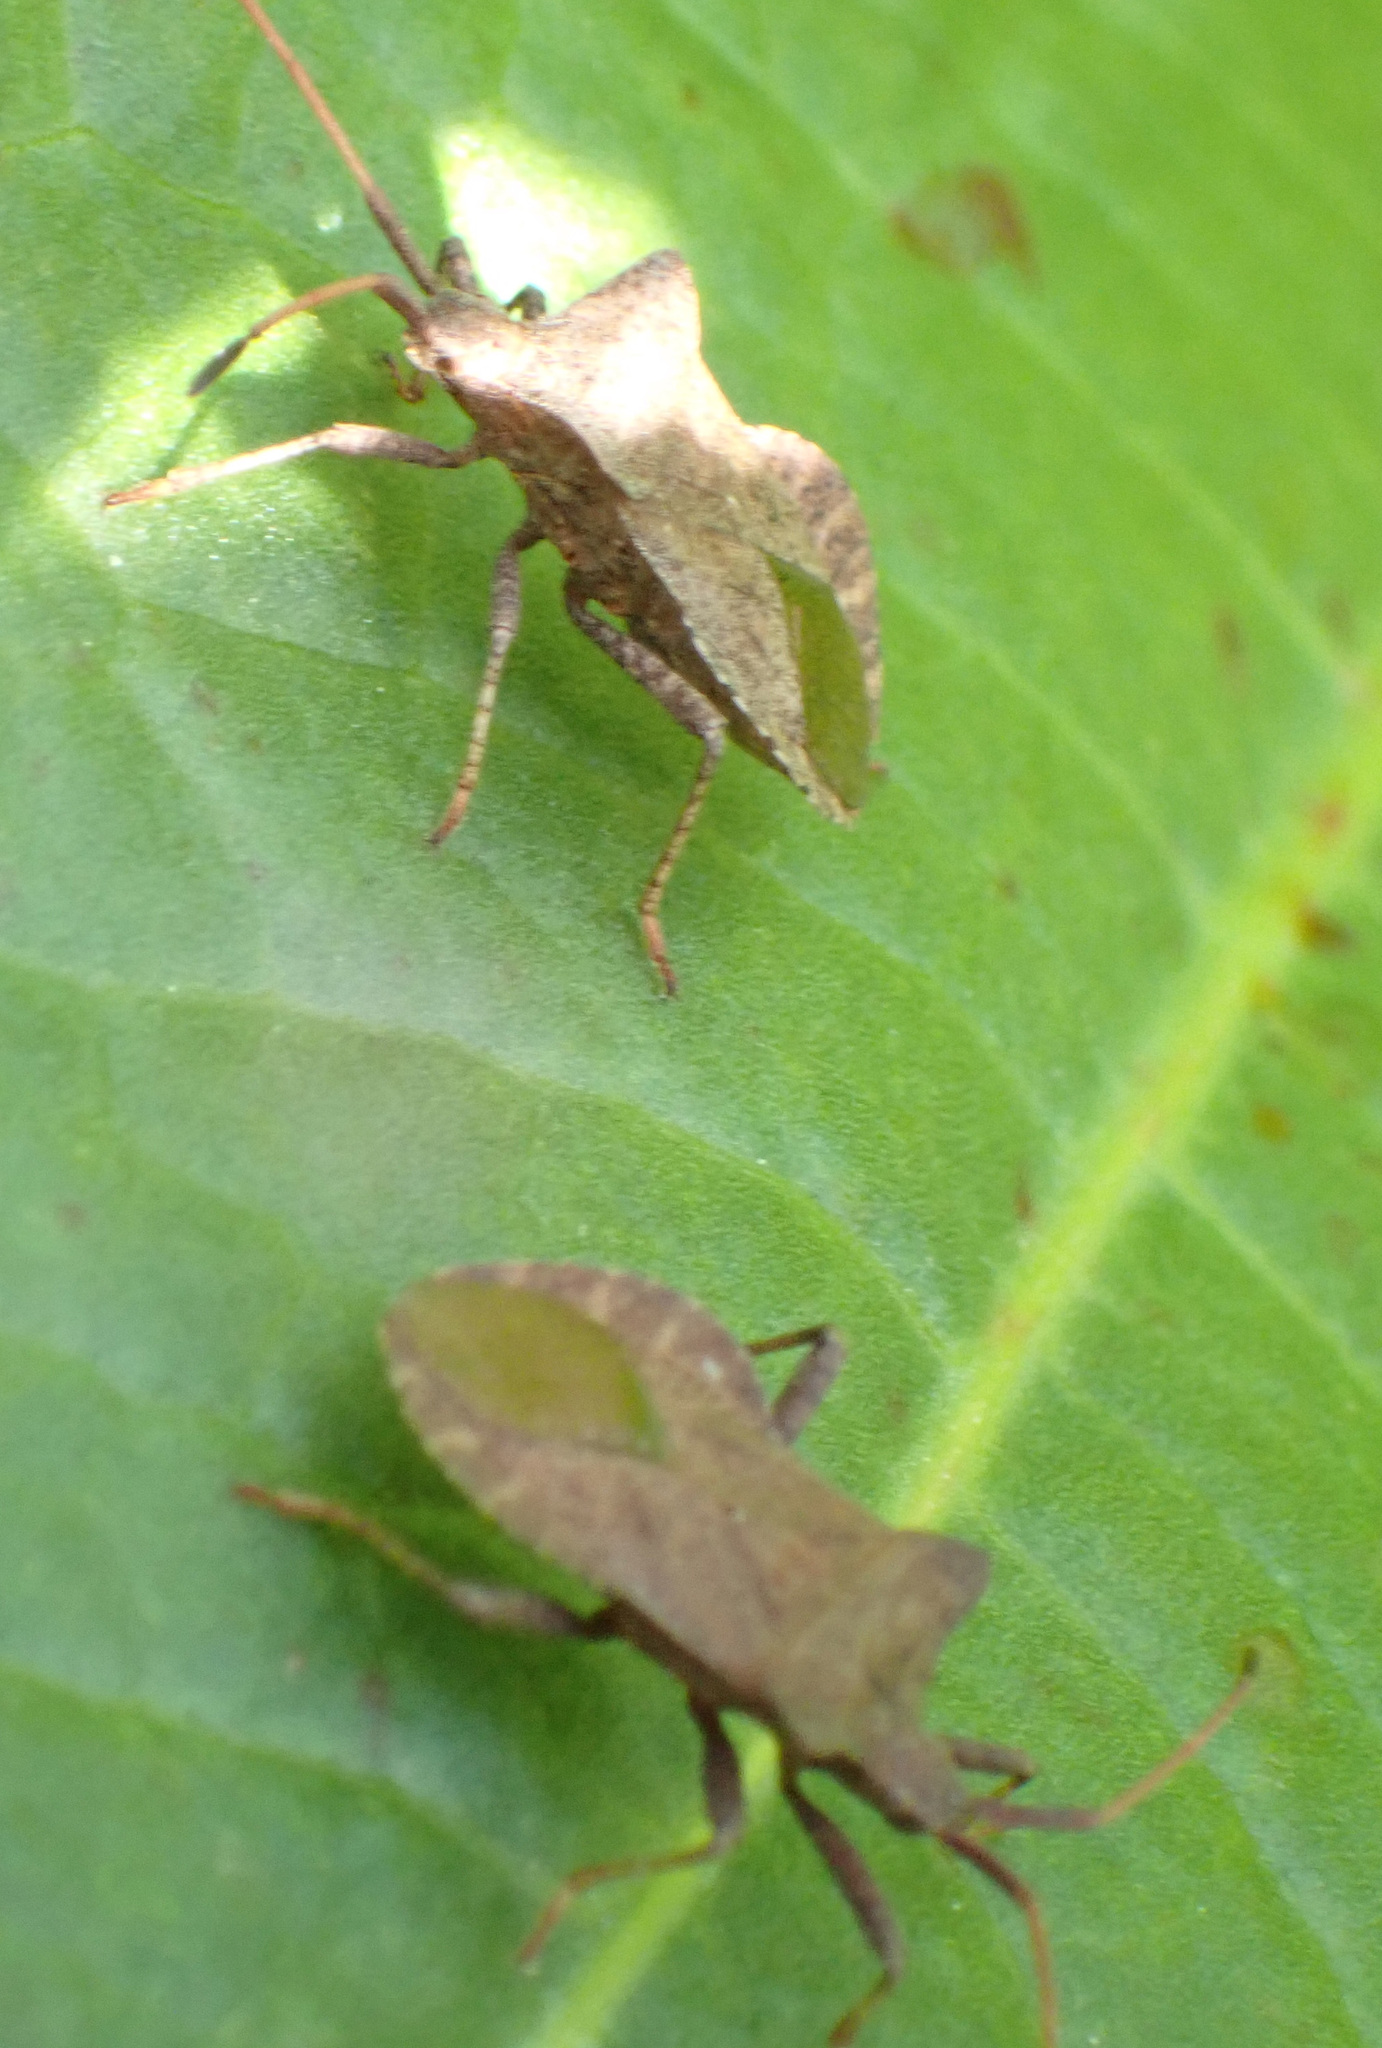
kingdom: Animalia
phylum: Arthropoda
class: Insecta
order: Hemiptera
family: Coreidae
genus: Coreus
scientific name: Coreus marginatus
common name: Dock bug
